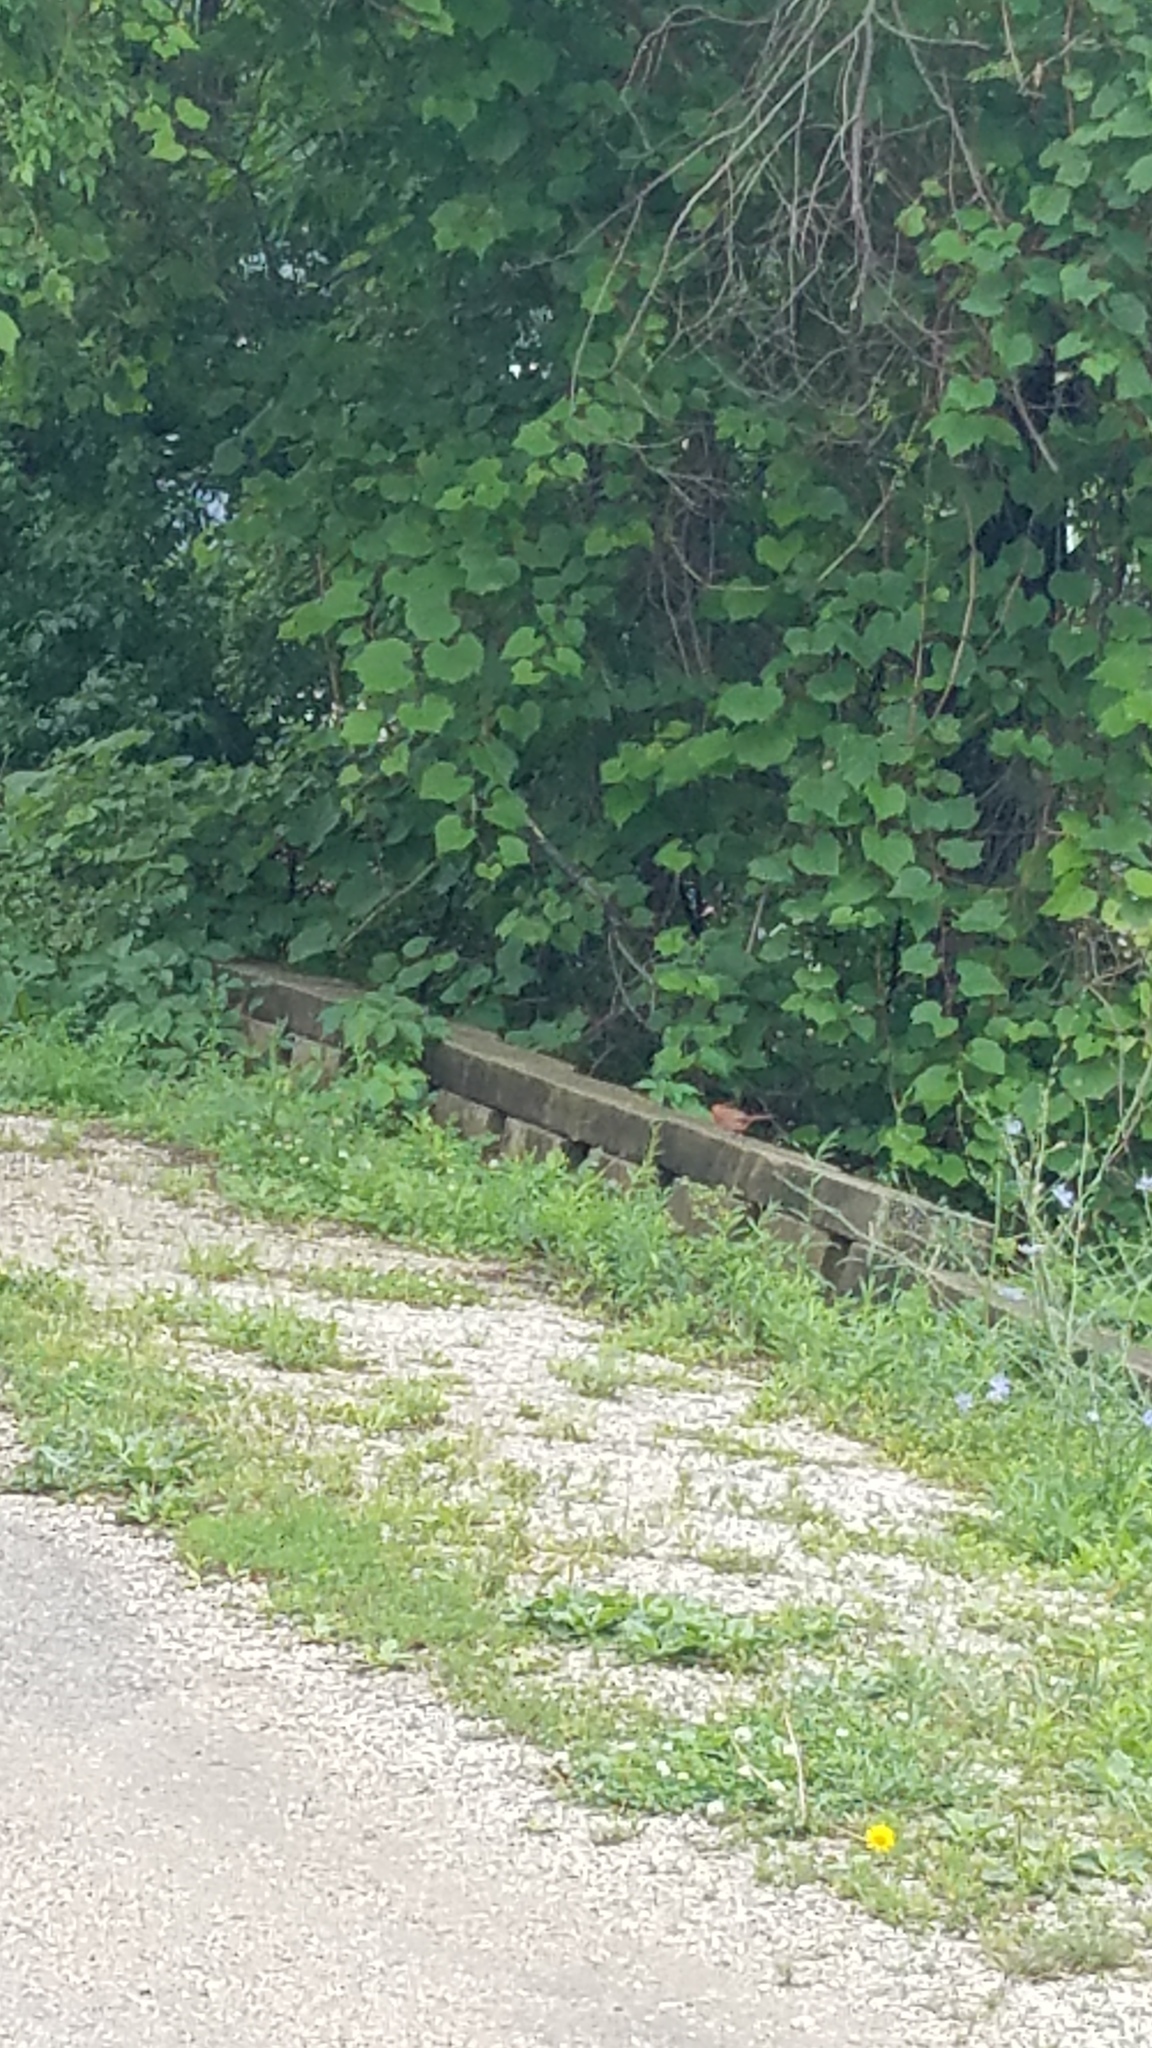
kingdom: Animalia
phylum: Chordata
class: Aves
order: Passeriformes
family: Cardinalidae
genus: Cardinalis
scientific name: Cardinalis cardinalis
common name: Northern cardinal
